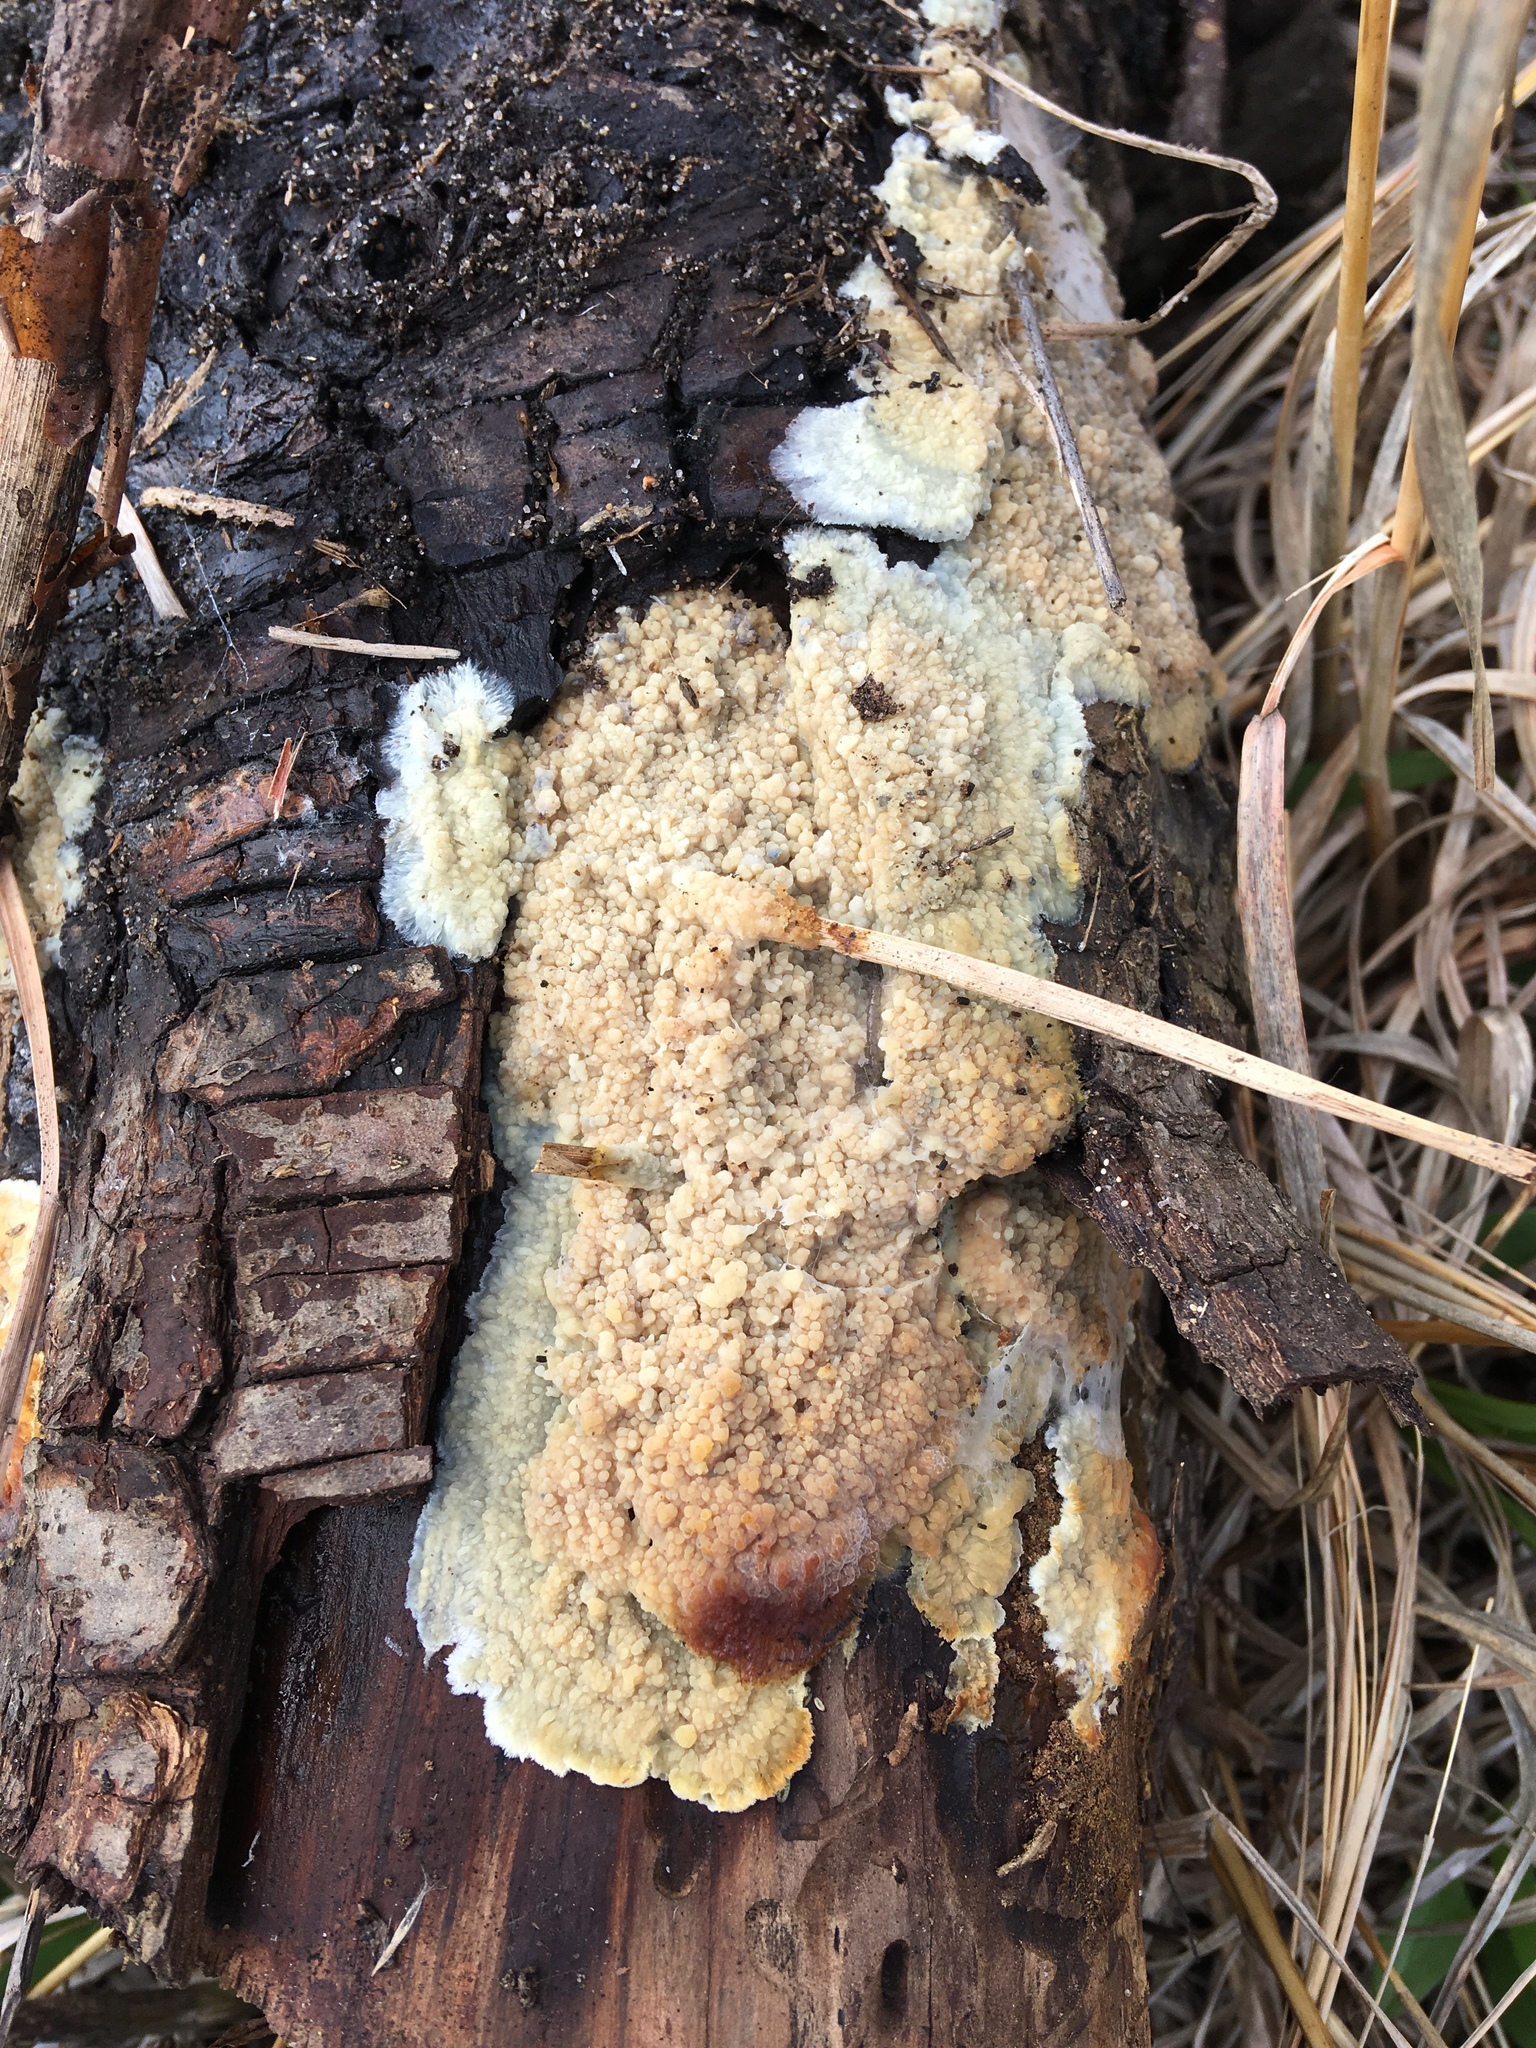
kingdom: Fungi
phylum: Basidiomycota
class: Agaricomycetes
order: Polyporales
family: Meruliaceae
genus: Phlebia
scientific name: Phlebia radiata
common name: Wrinkled crust
